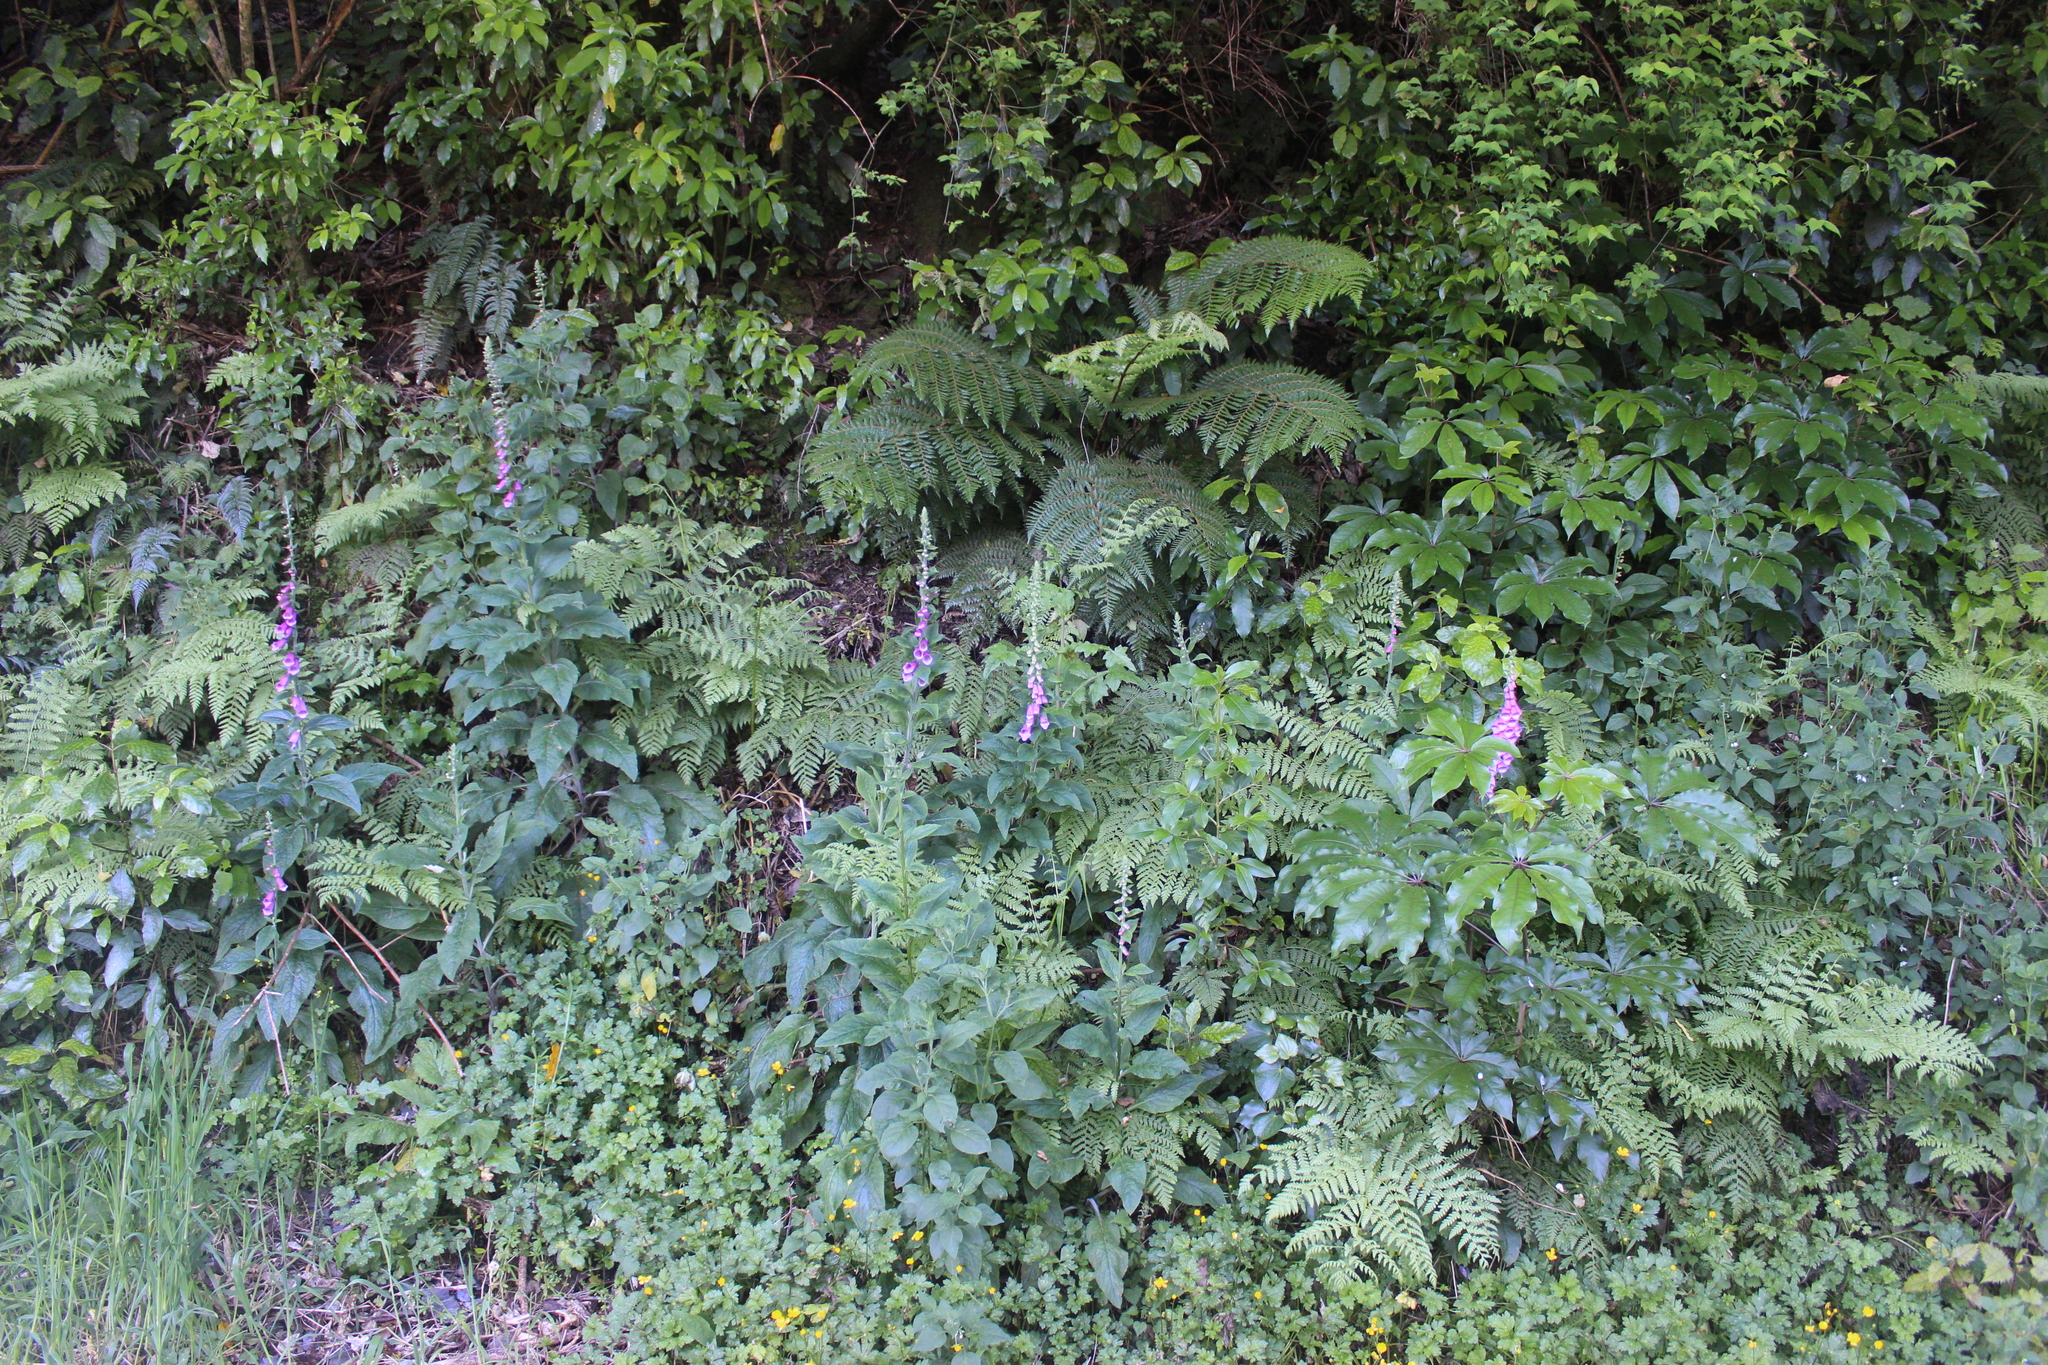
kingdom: Plantae
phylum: Tracheophyta
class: Magnoliopsida
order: Lamiales
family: Plantaginaceae
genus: Digitalis
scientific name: Digitalis purpurea
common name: Foxglove
